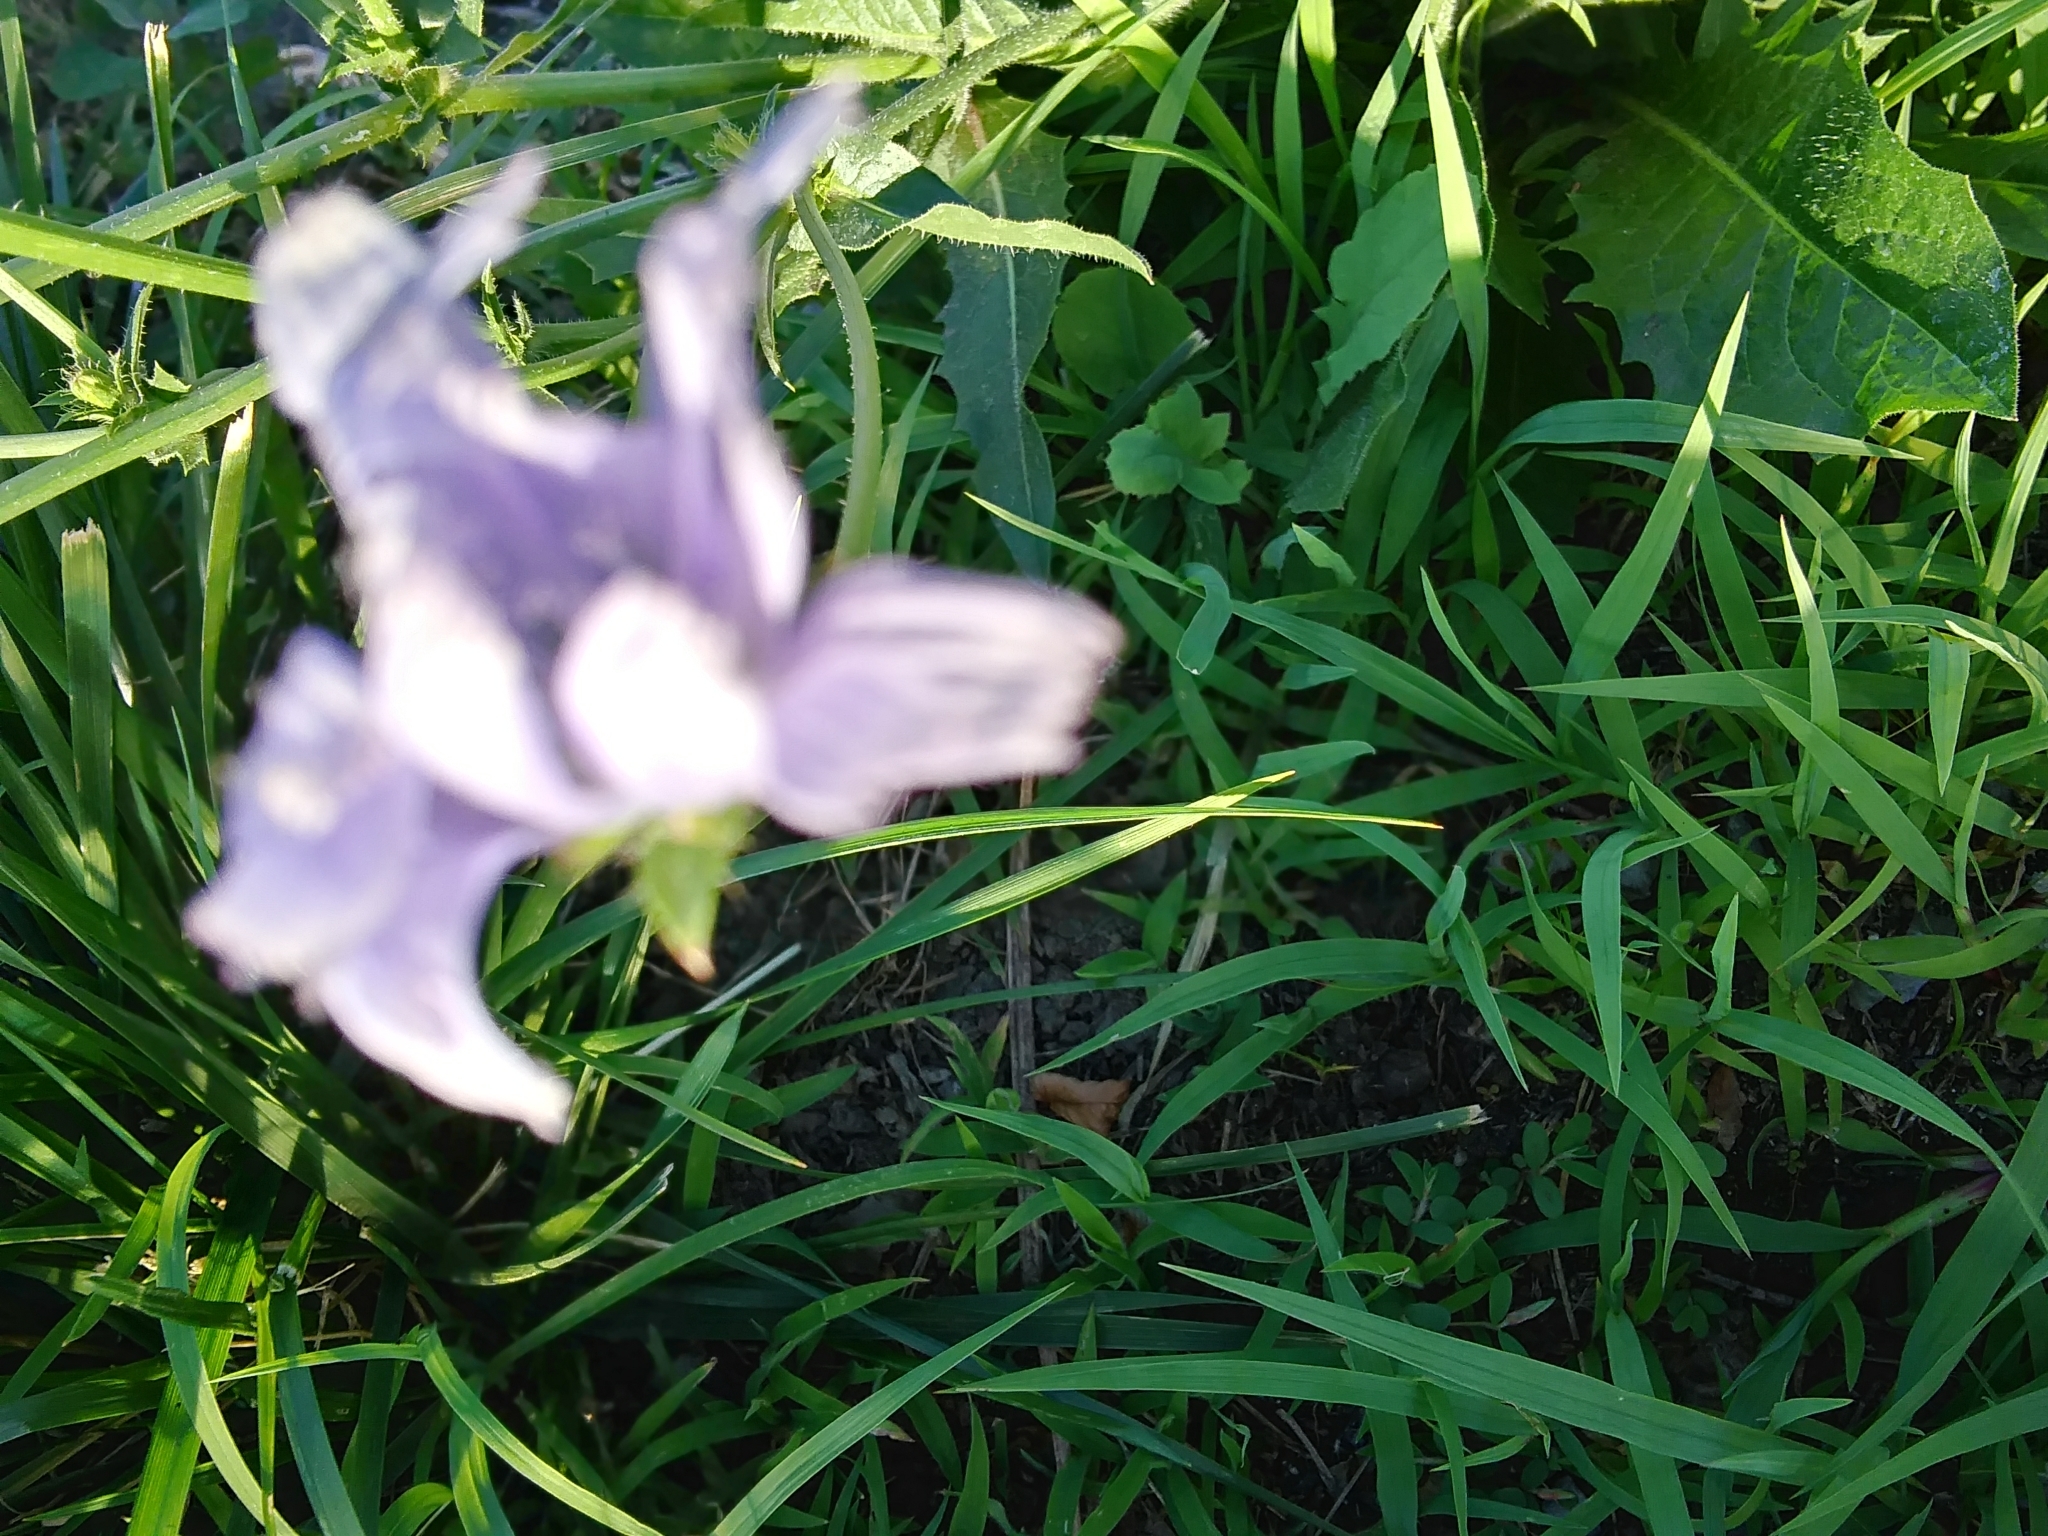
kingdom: Plantae
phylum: Tracheophyta
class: Magnoliopsida
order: Asterales
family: Asteraceae
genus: Cichorium
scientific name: Cichorium intybus
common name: Chicory
